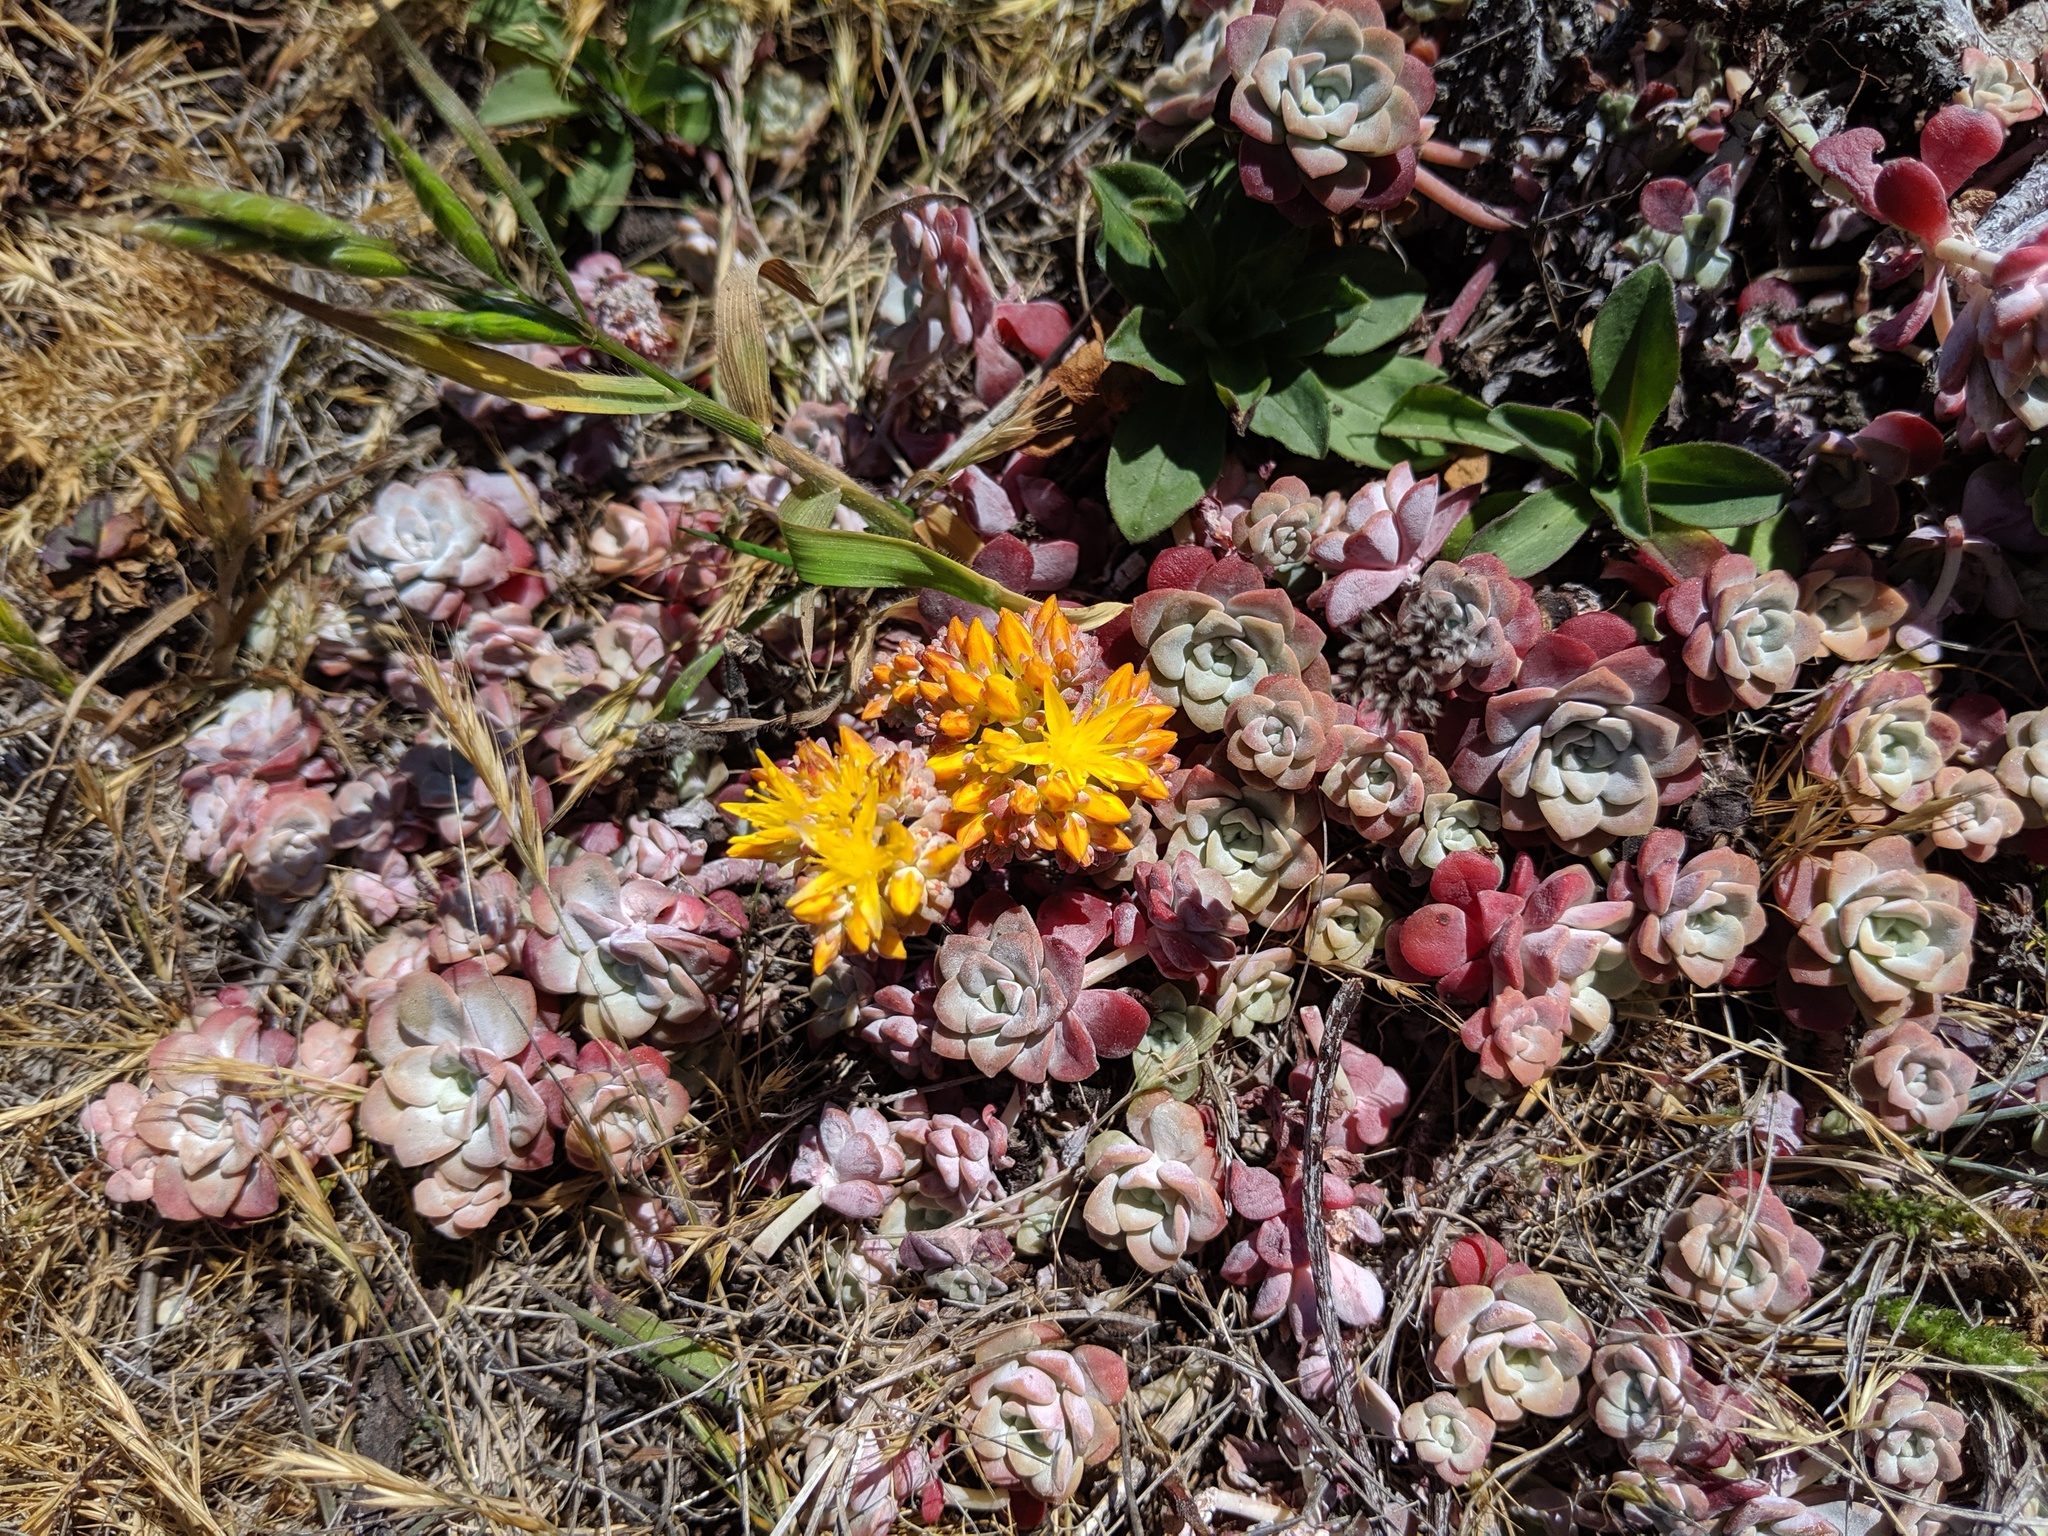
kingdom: Plantae
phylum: Tracheophyta
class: Magnoliopsida
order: Saxifragales
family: Crassulaceae
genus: Sedum
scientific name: Sedum spathulifolium
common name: Colorado stonecrop
